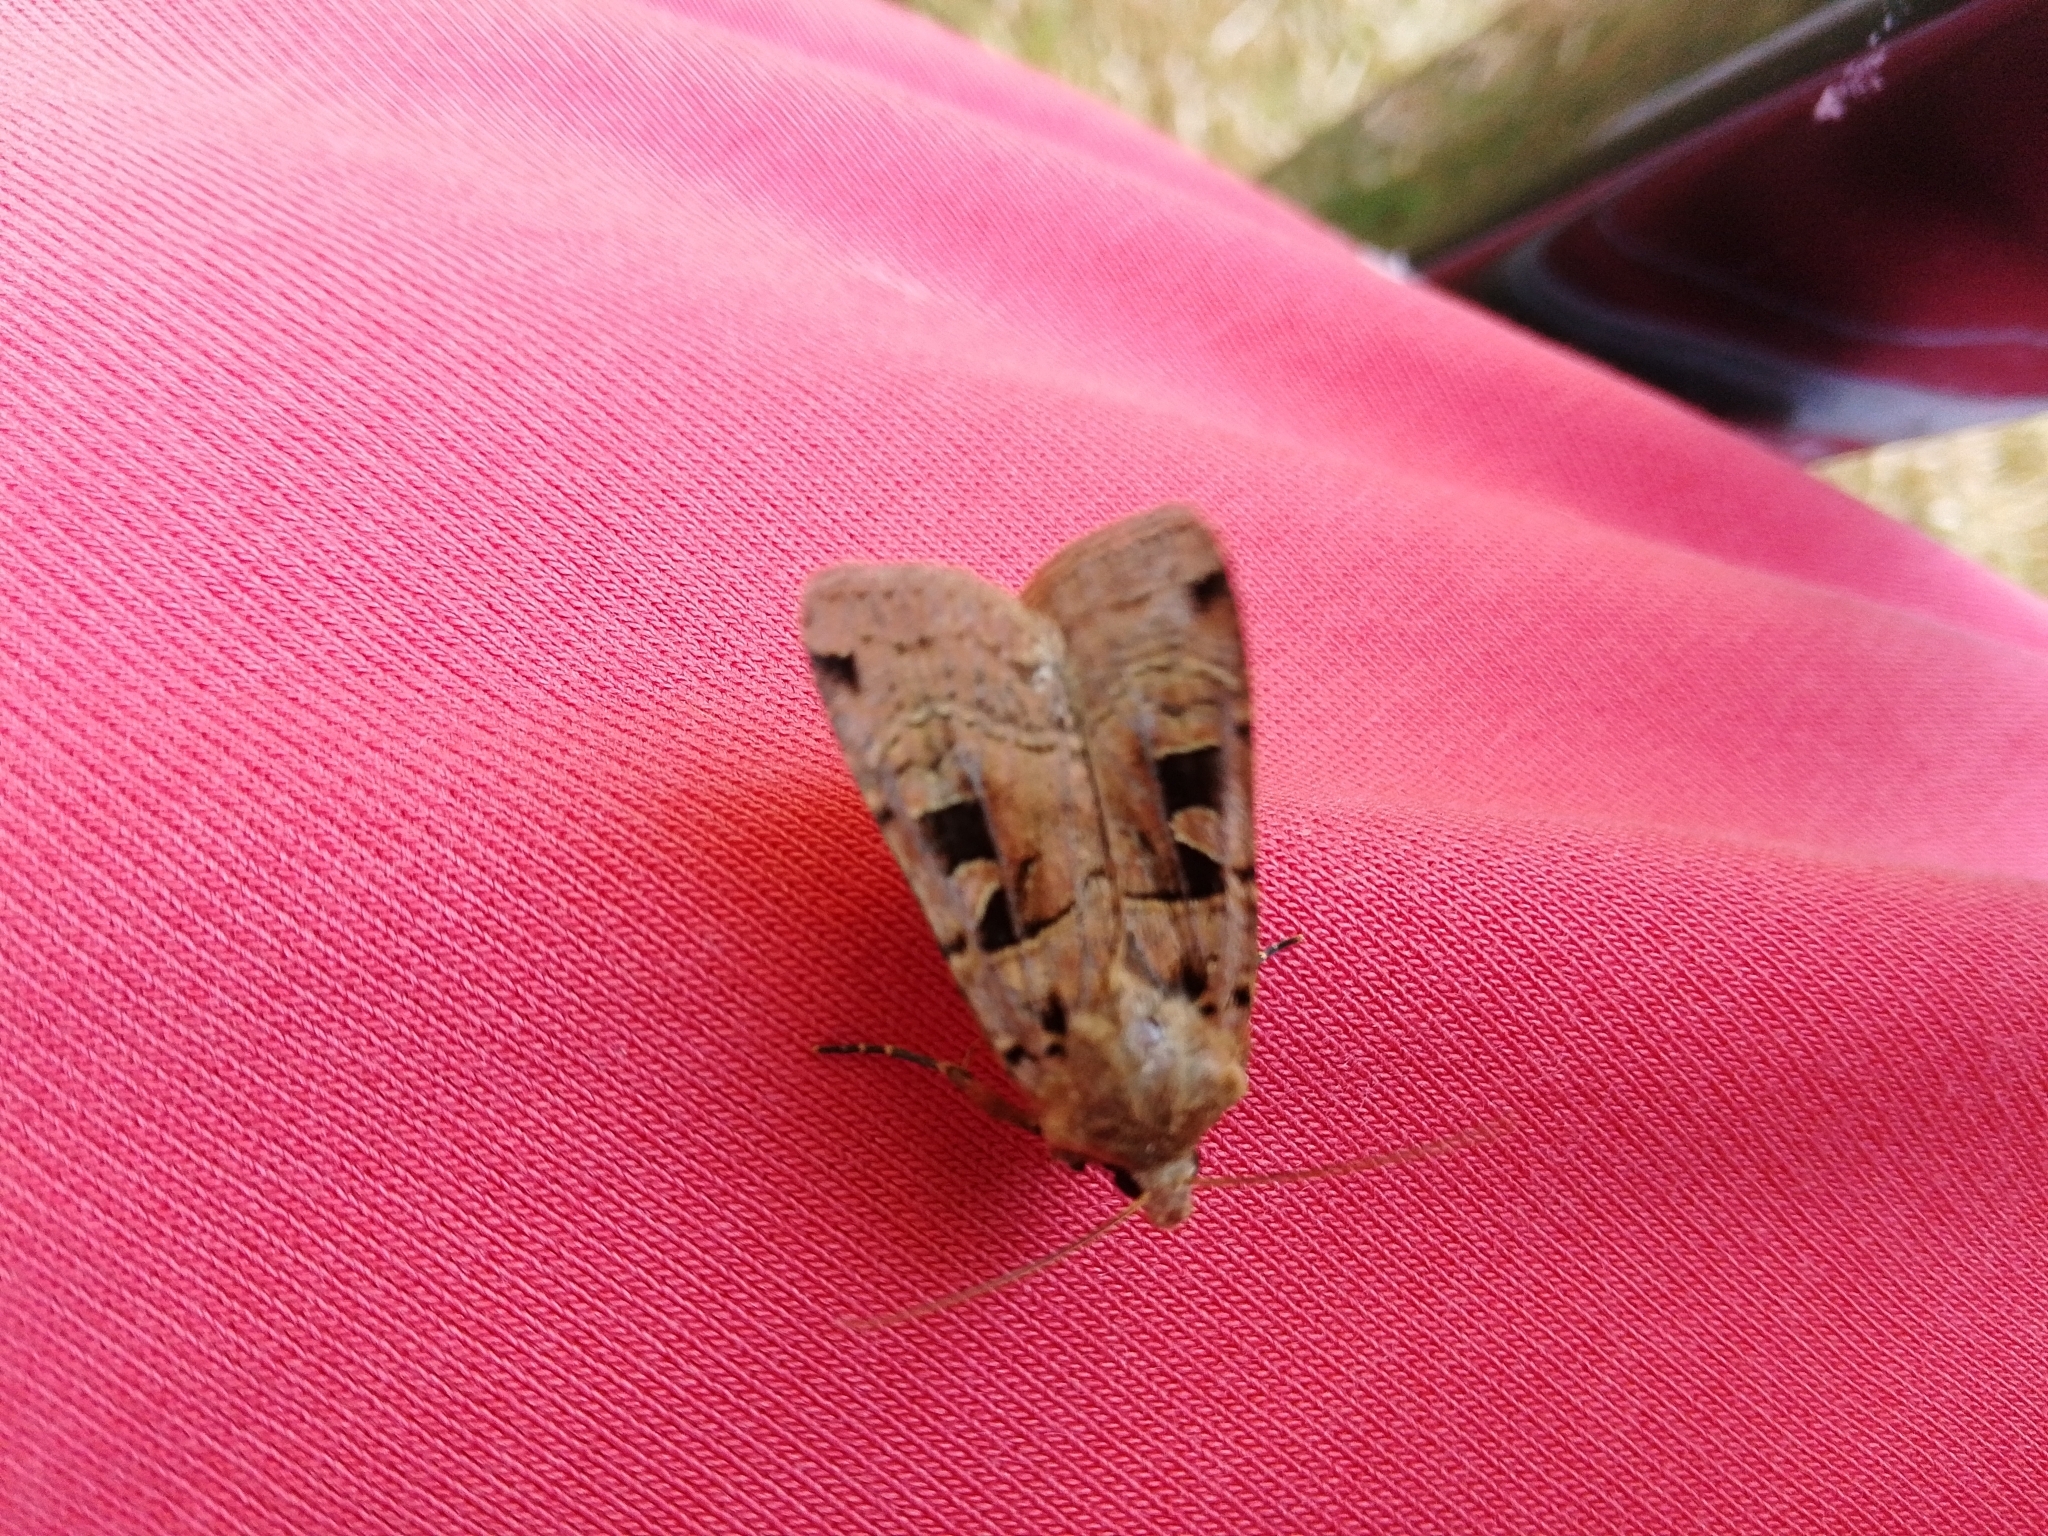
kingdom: Animalia
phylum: Arthropoda
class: Insecta
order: Lepidoptera
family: Noctuidae
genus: Xestia
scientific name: Xestia triangulum
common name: Double square-spot
